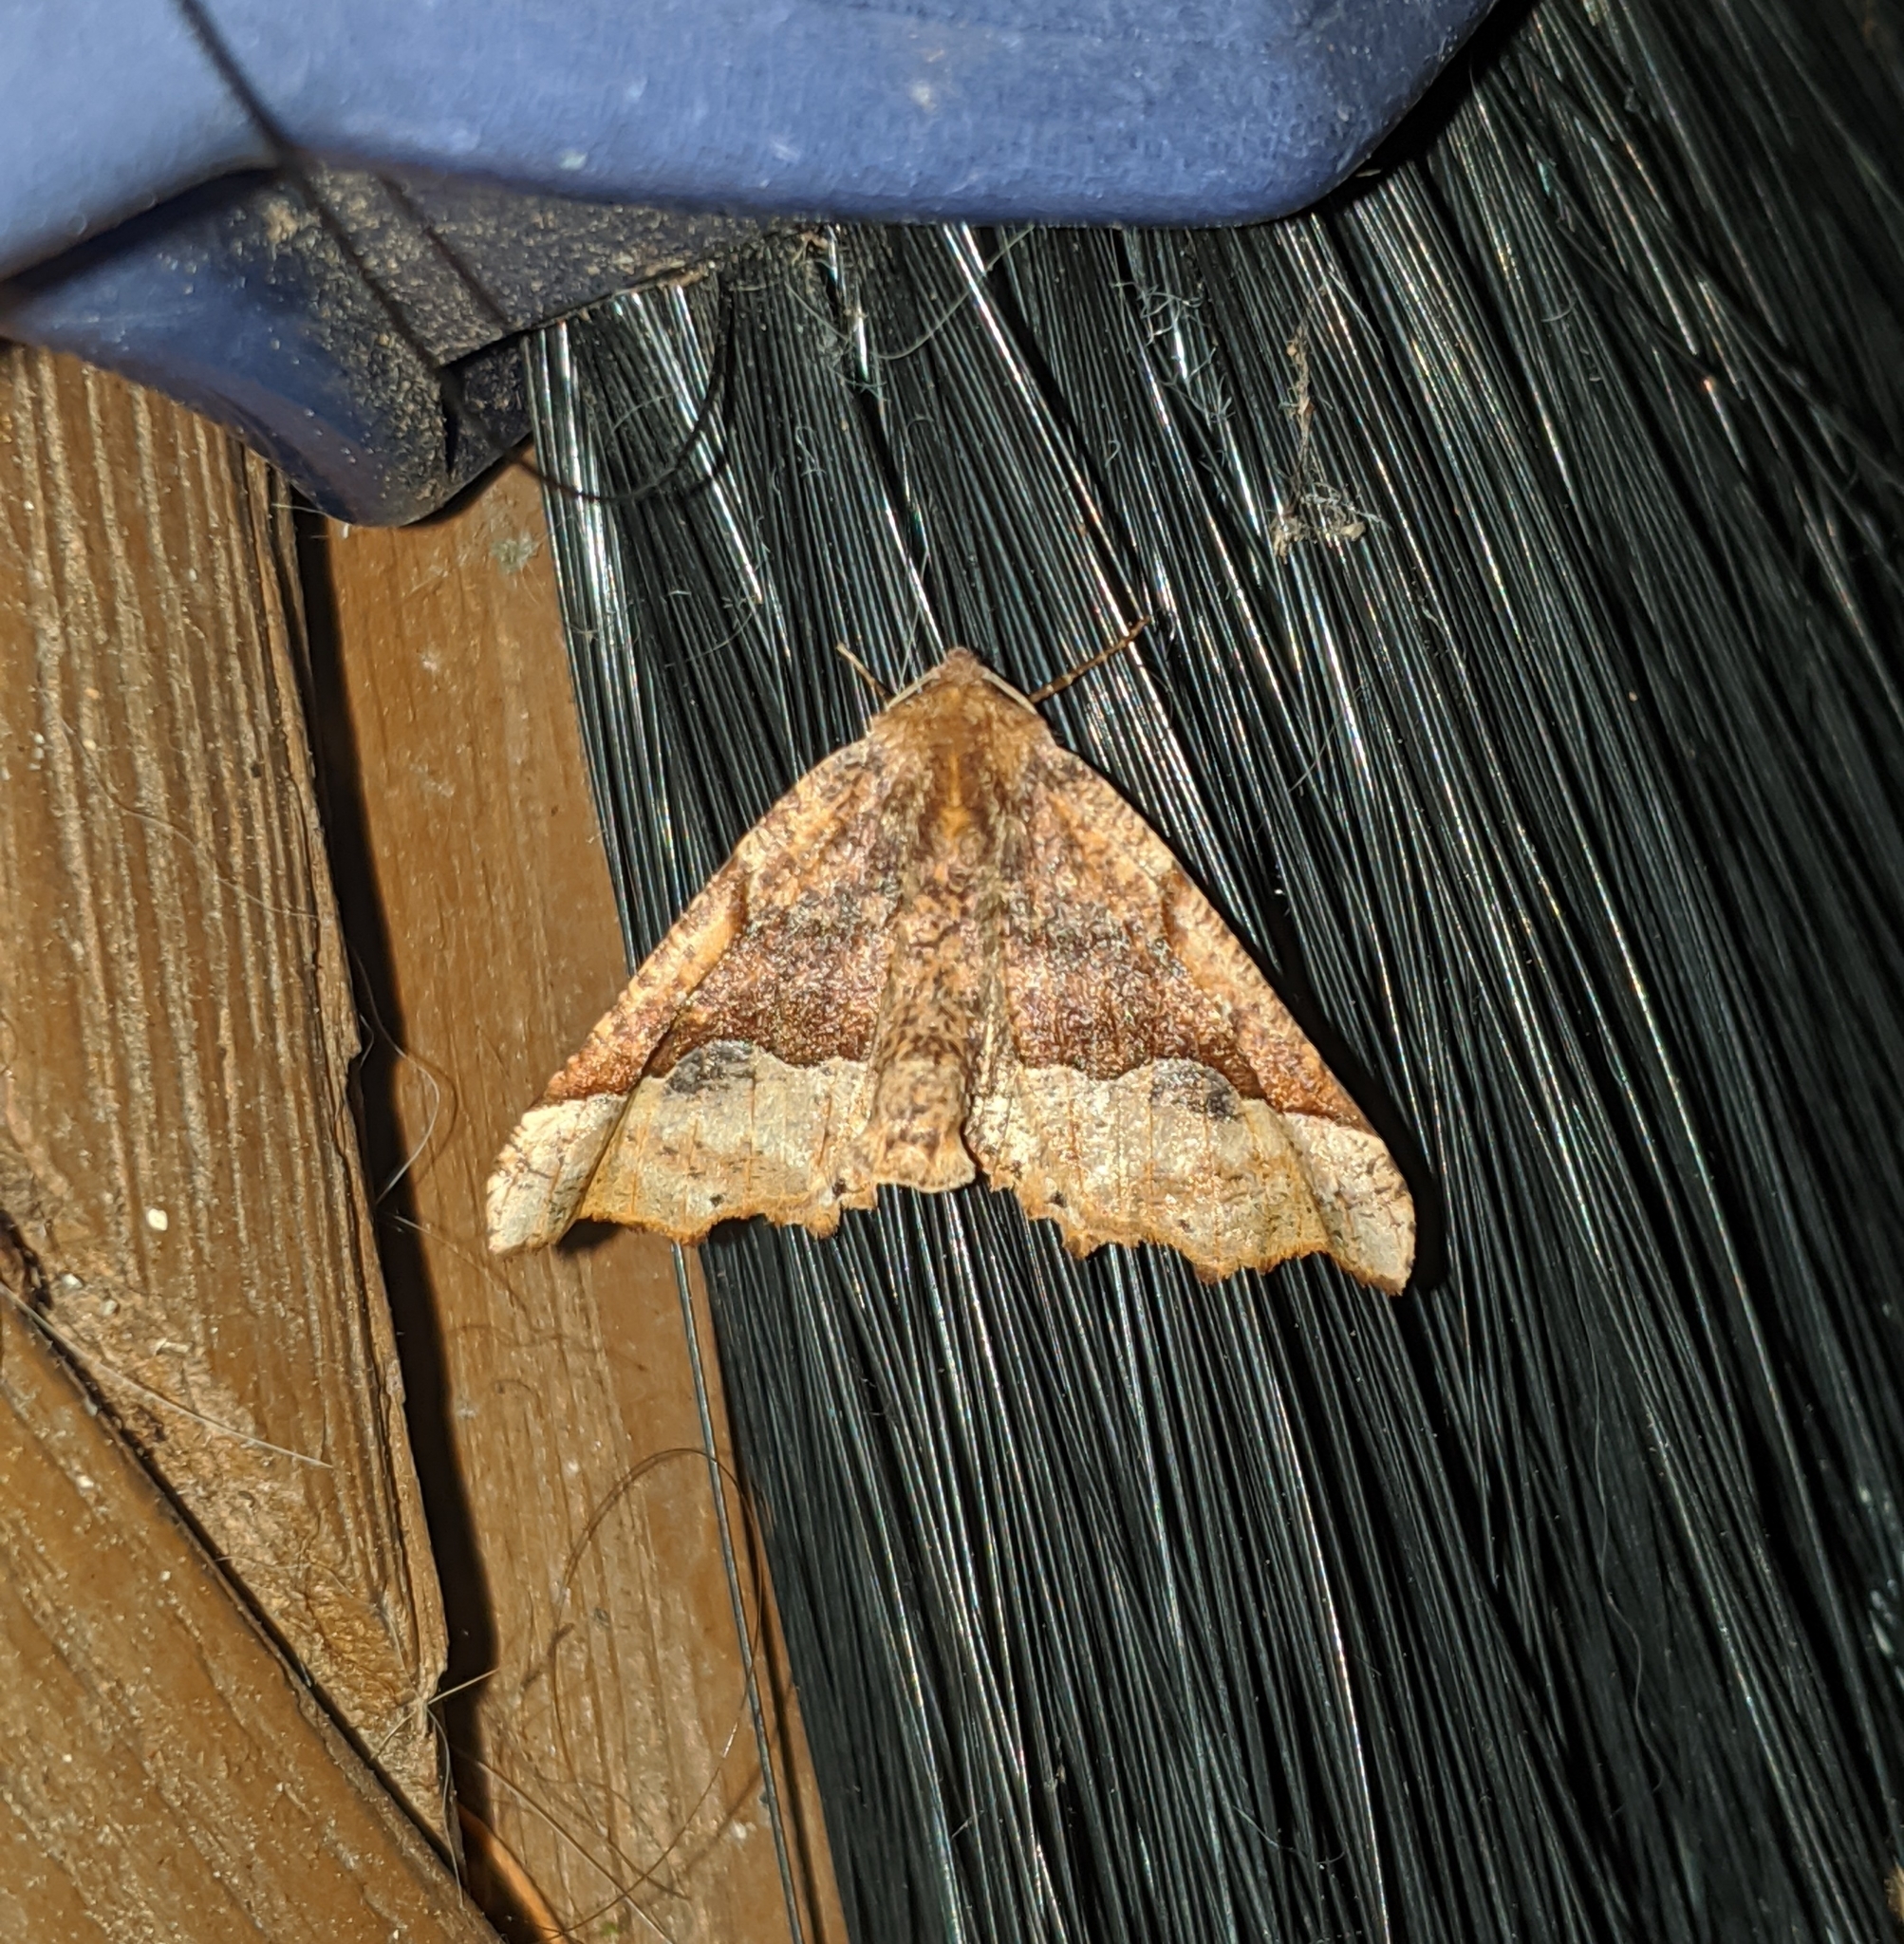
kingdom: Animalia
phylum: Arthropoda
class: Insecta
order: Lepidoptera
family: Geometridae
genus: Pero
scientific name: Pero morrisonaria
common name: Morrison's pero
